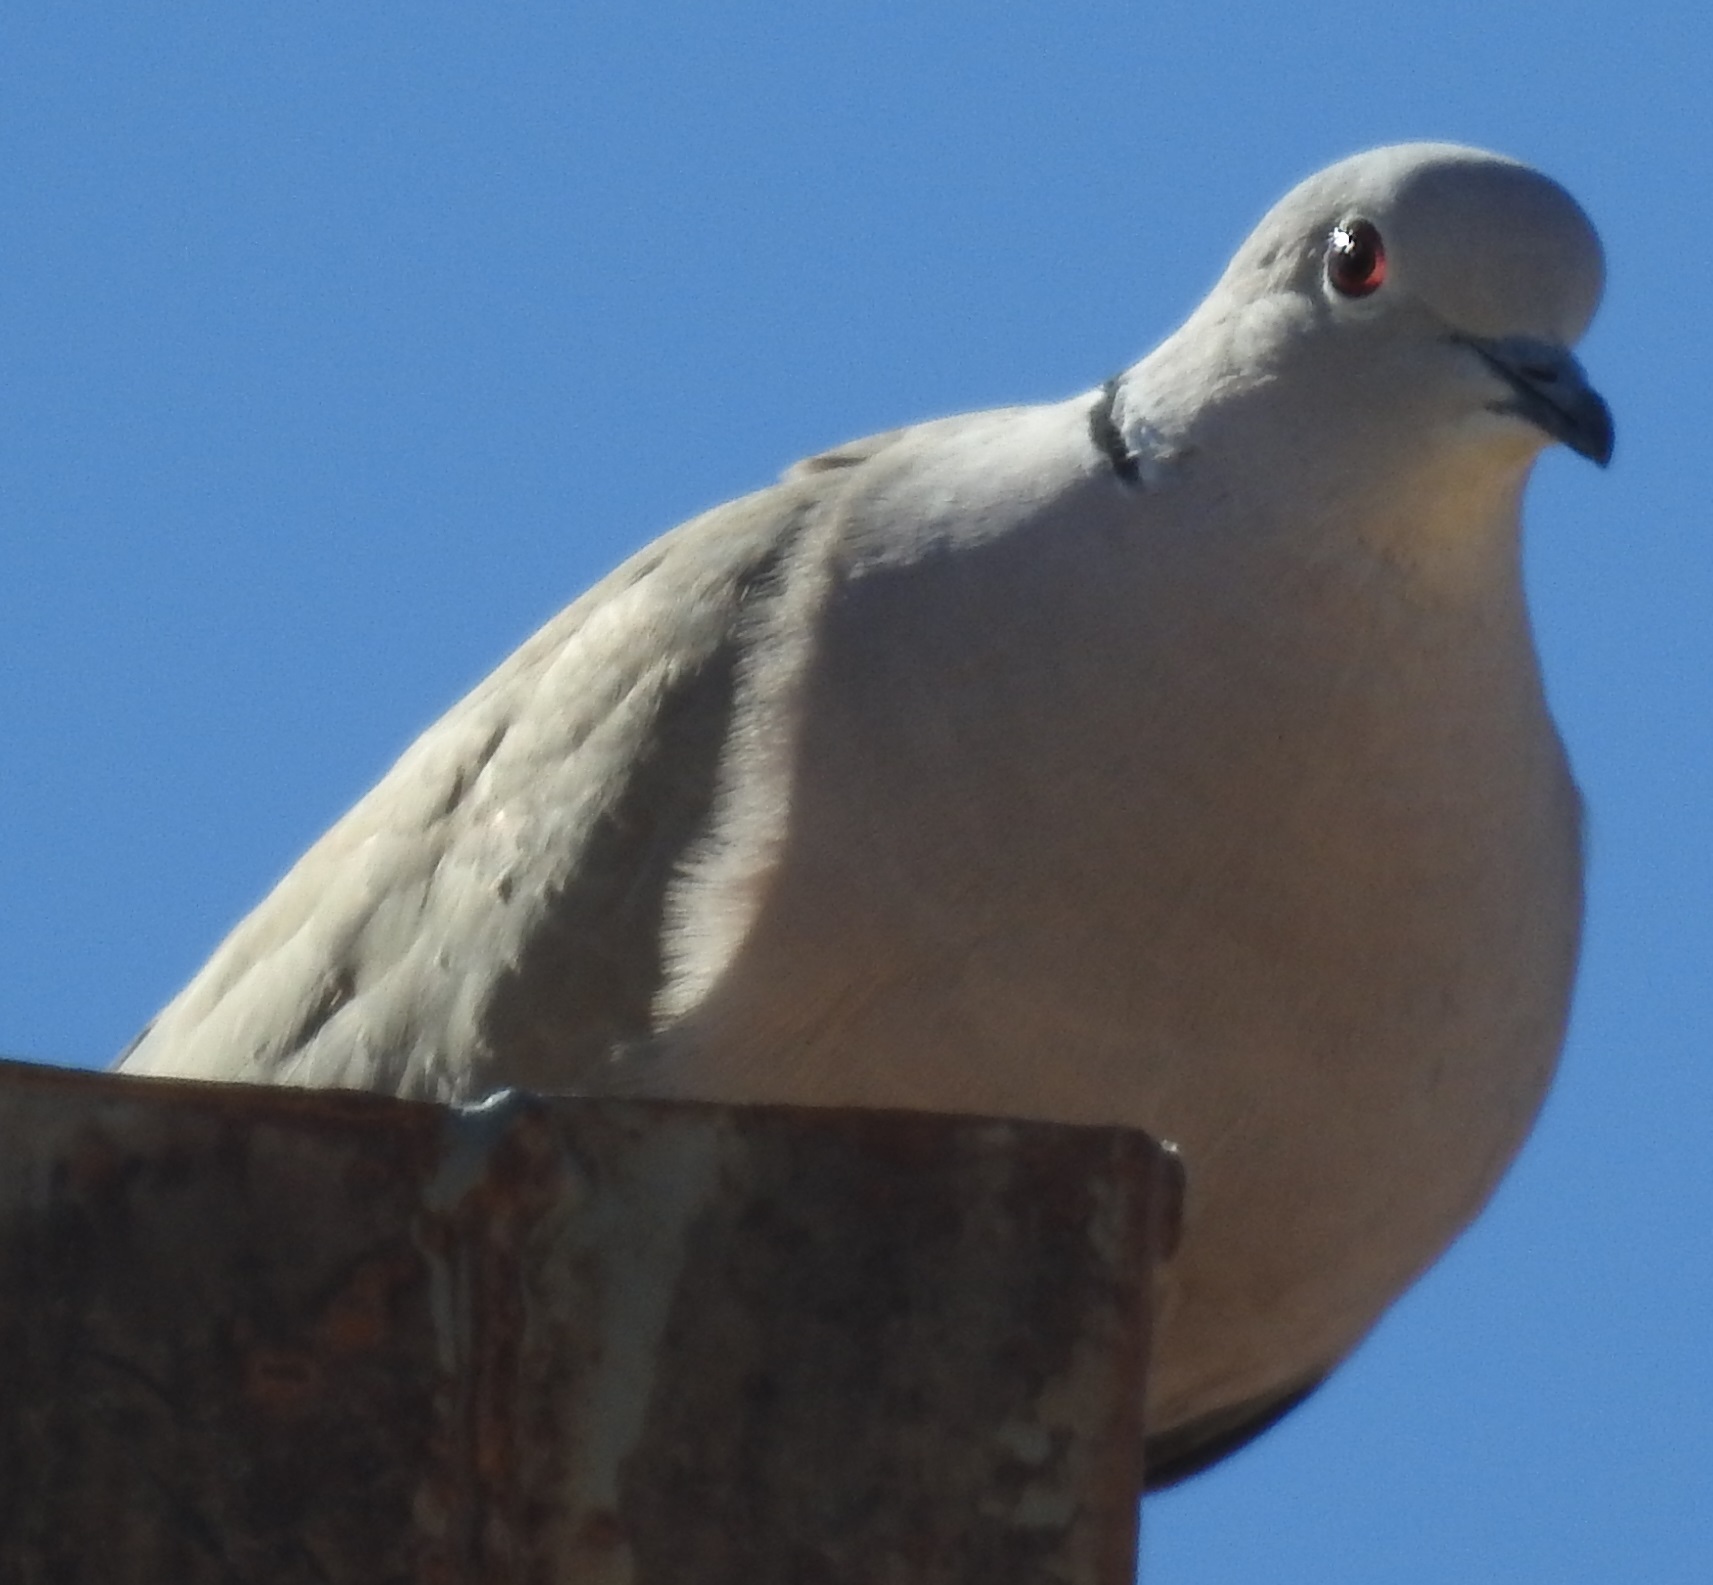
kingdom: Animalia
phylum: Chordata
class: Aves
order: Columbiformes
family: Columbidae
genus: Streptopelia
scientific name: Streptopelia decaocto
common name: Eurasian collared dove
